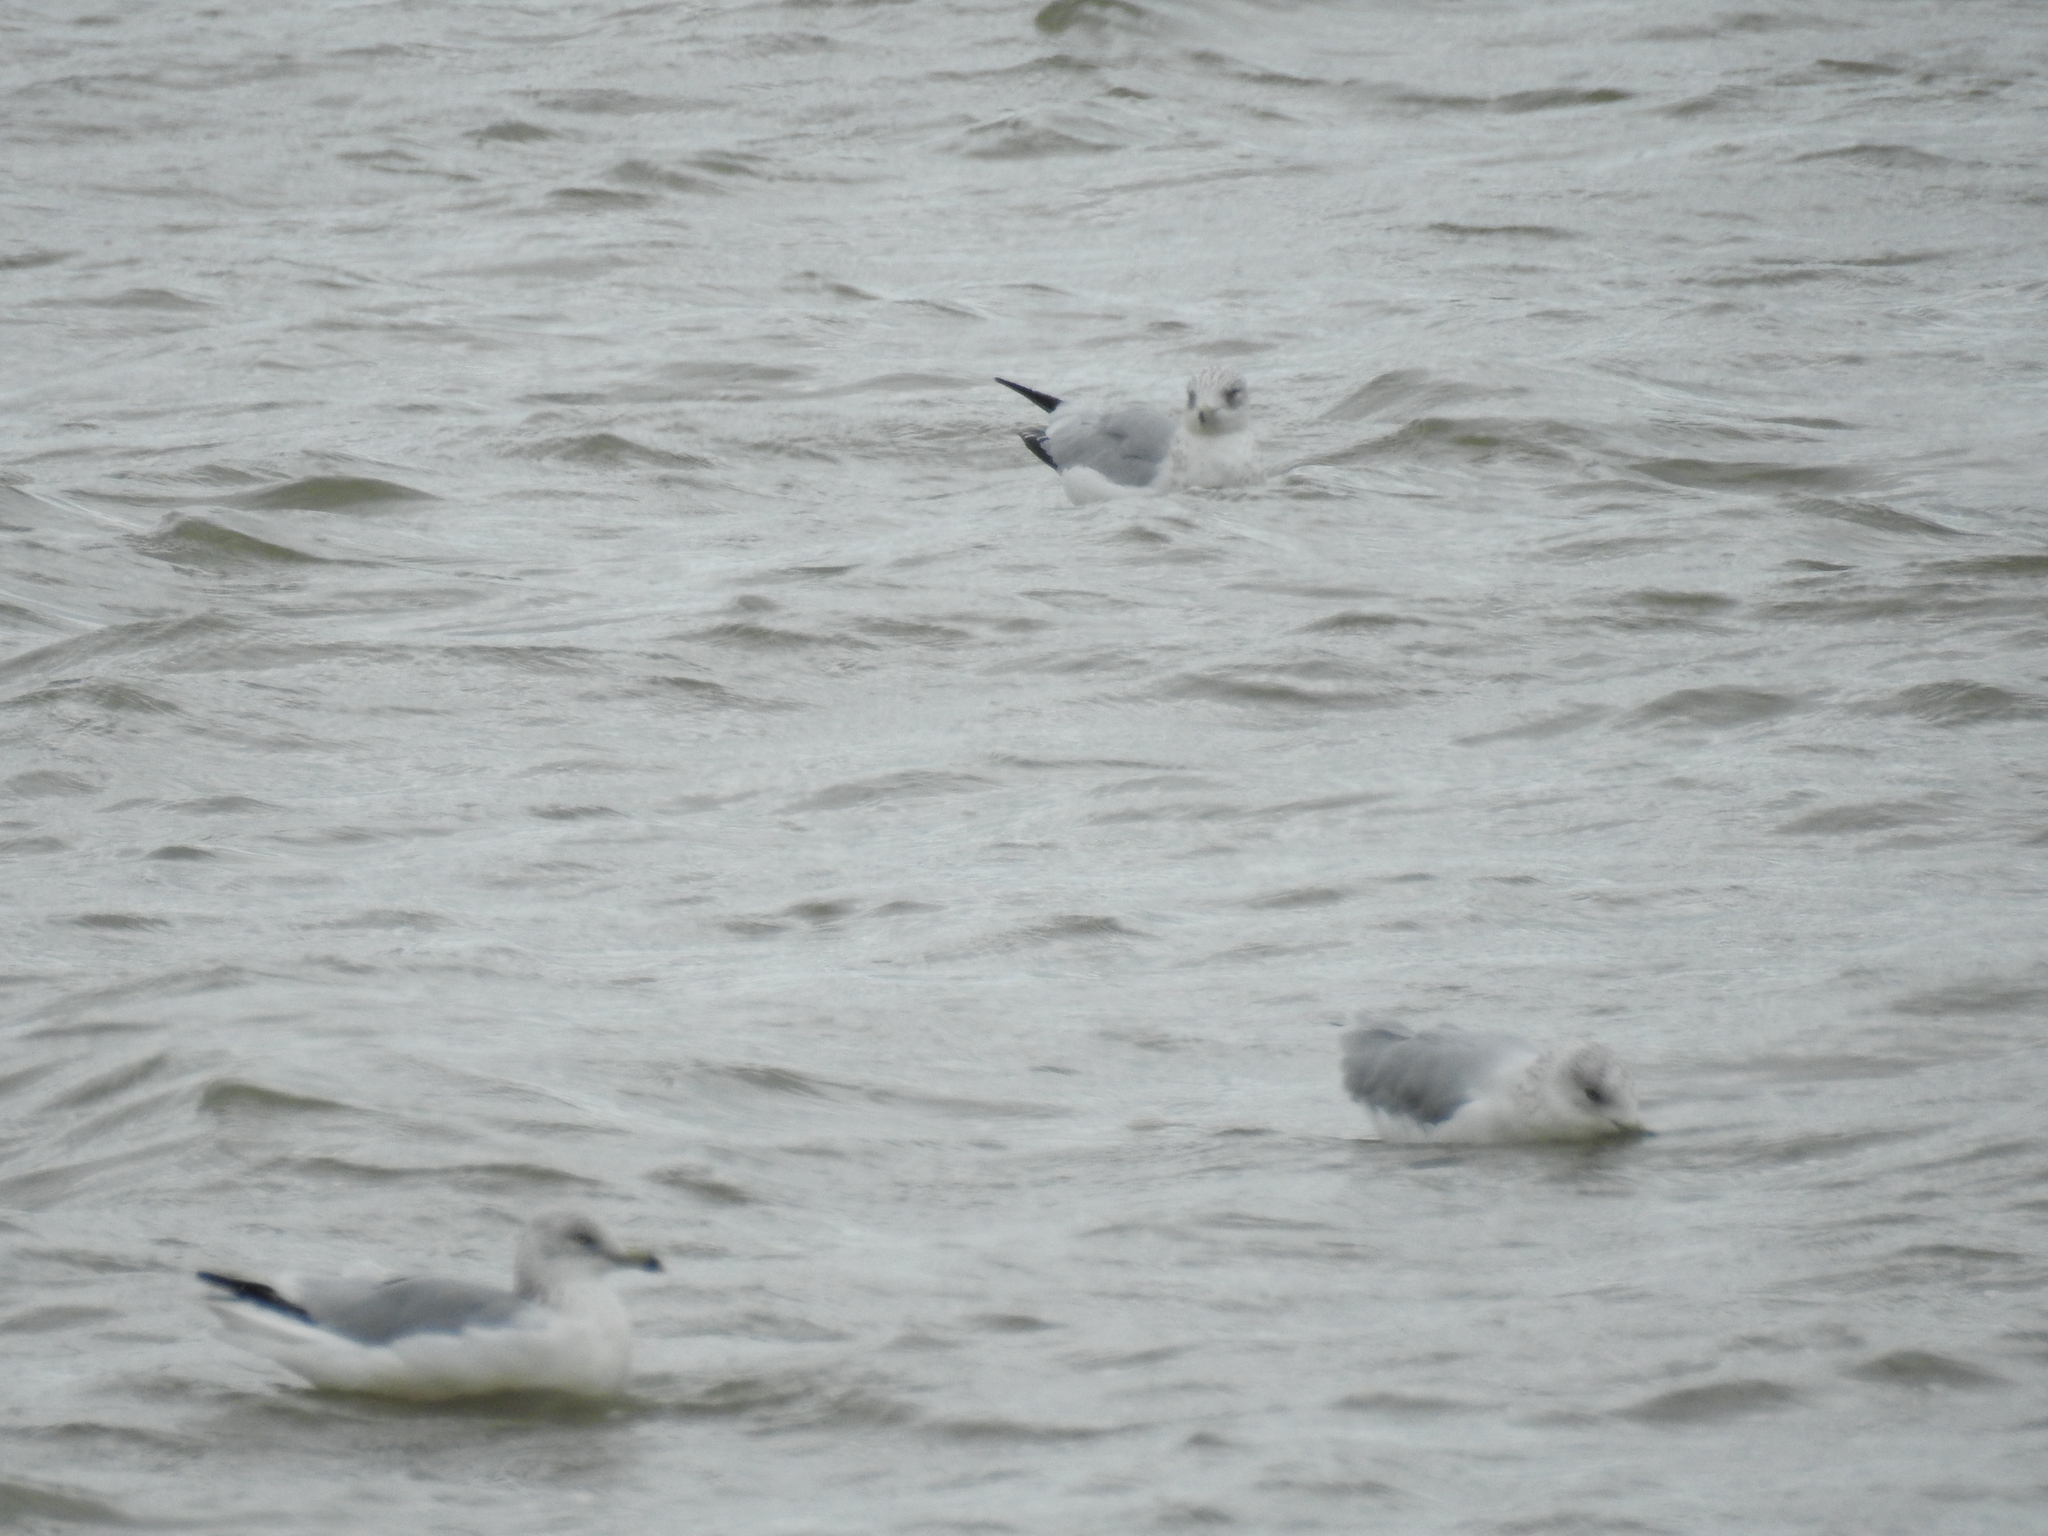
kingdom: Animalia
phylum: Chordata
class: Aves
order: Charadriiformes
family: Laridae
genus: Larus
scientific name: Larus delawarensis
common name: Ring-billed gull
